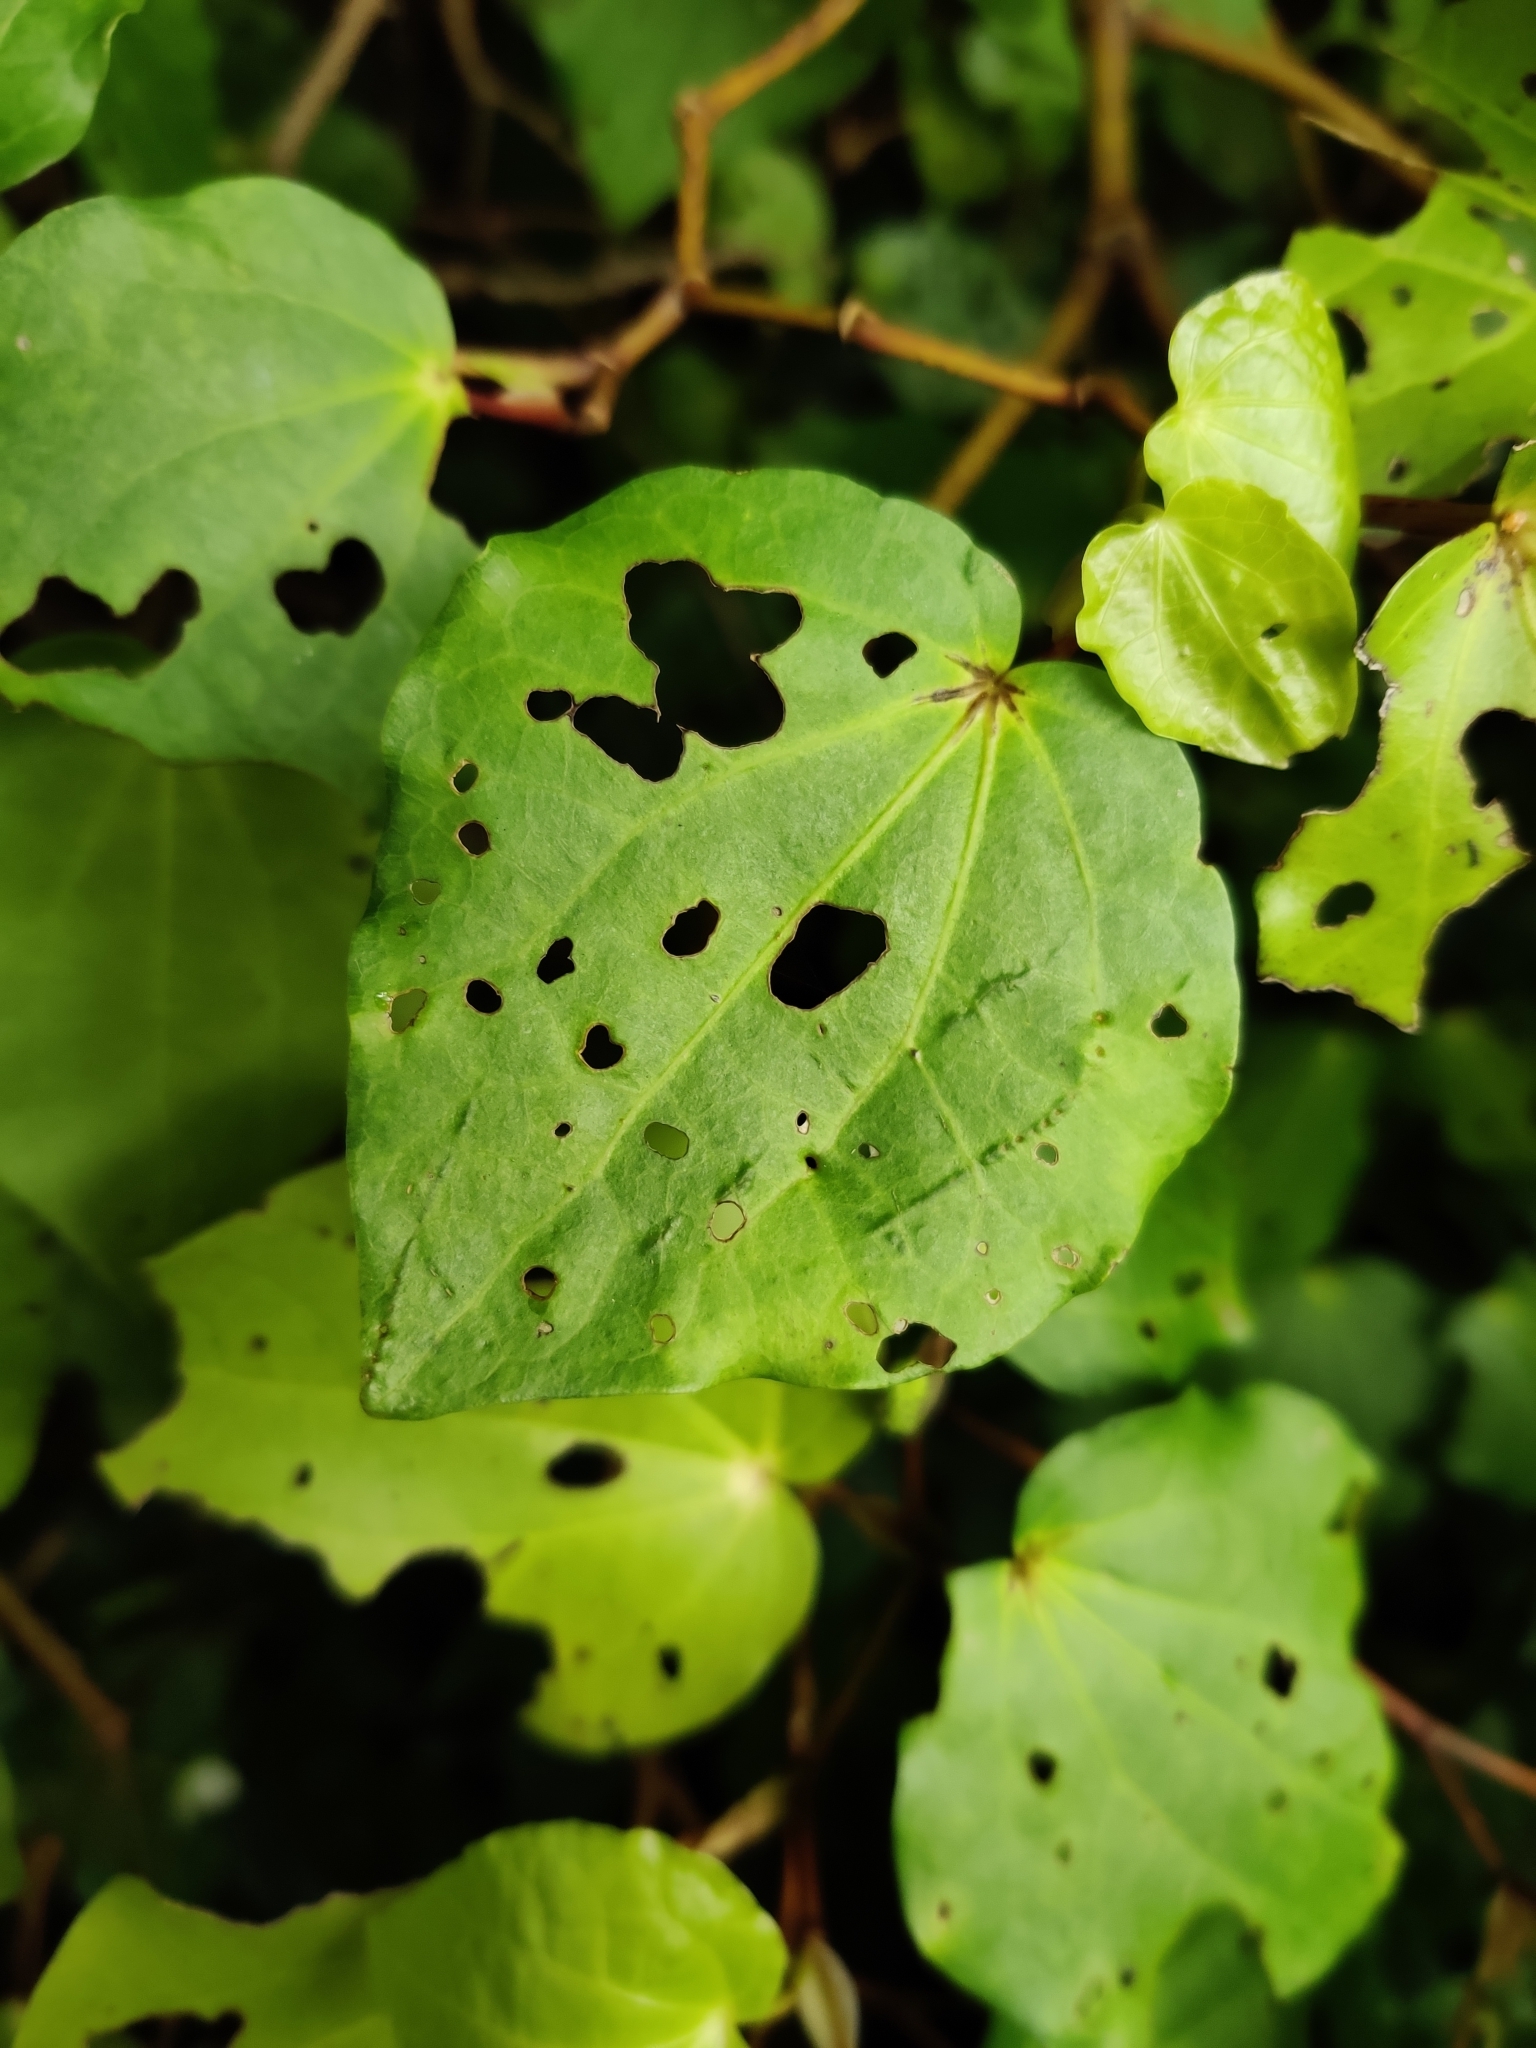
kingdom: Plantae
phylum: Tracheophyta
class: Magnoliopsida
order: Piperales
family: Piperaceae
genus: Macropiper
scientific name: Macropiper excelsum
